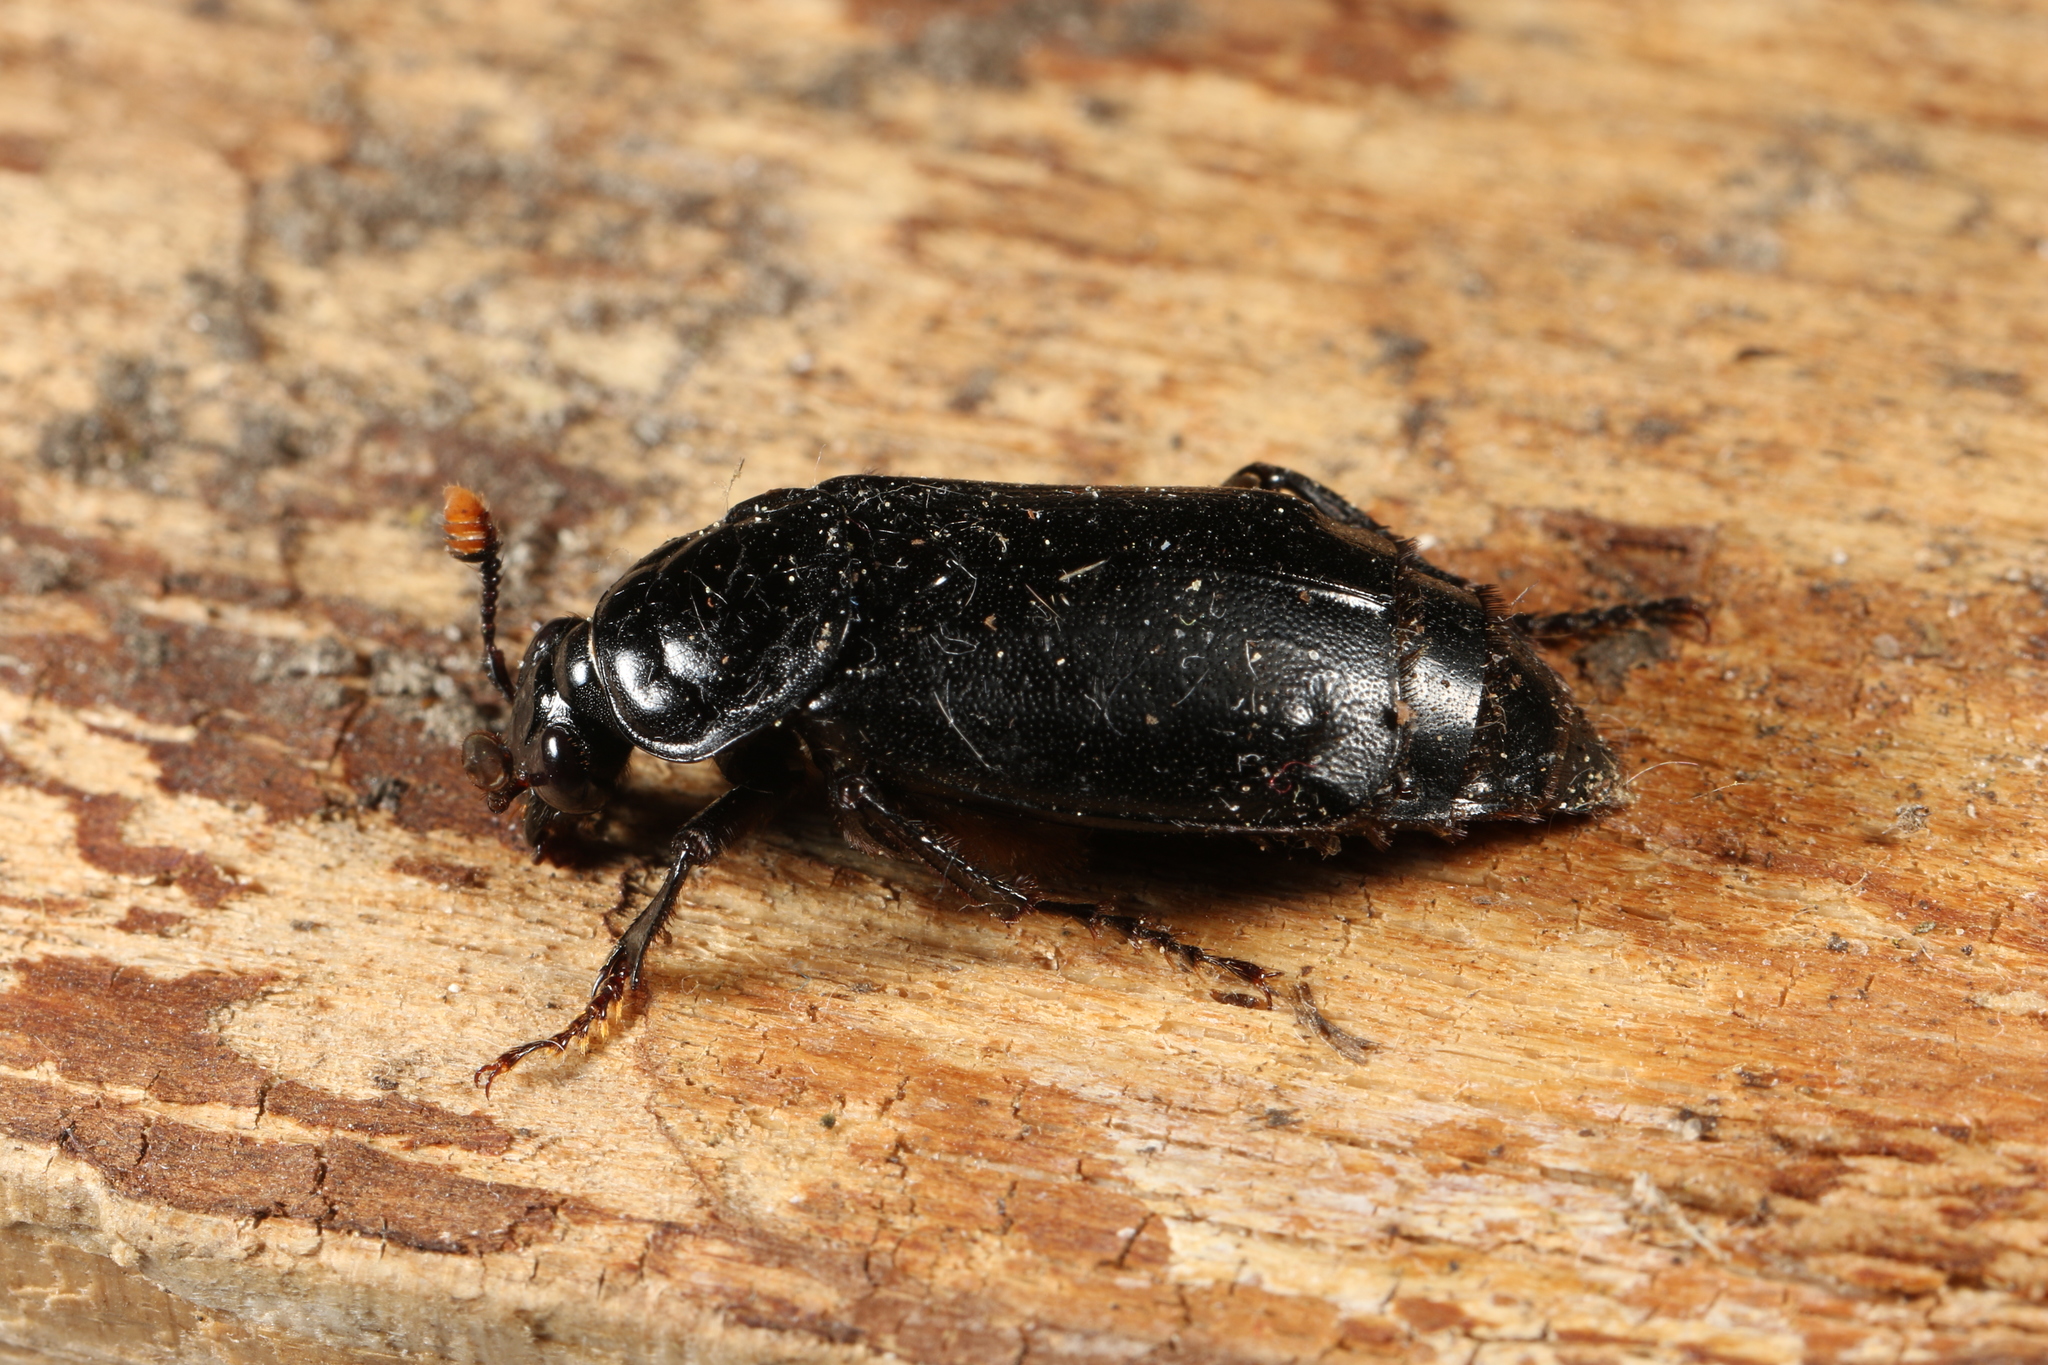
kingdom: Animalia
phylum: Arthropoda
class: Insecta
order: Coleoptera
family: Staphylinidae
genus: Nicrophorus
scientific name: Nicrophorus humator
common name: Black sexton beetle
